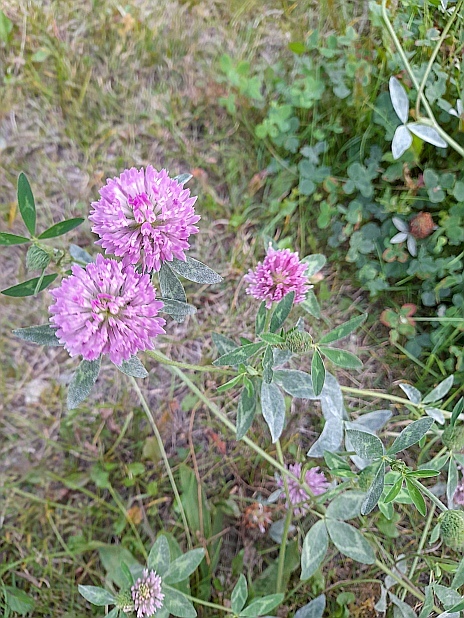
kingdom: Plantae
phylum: Tracheophyta
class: Magnoliopsida
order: Fabales
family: Fabaceae
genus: Trifolium
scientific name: Trifolium pratense
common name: Red clover
